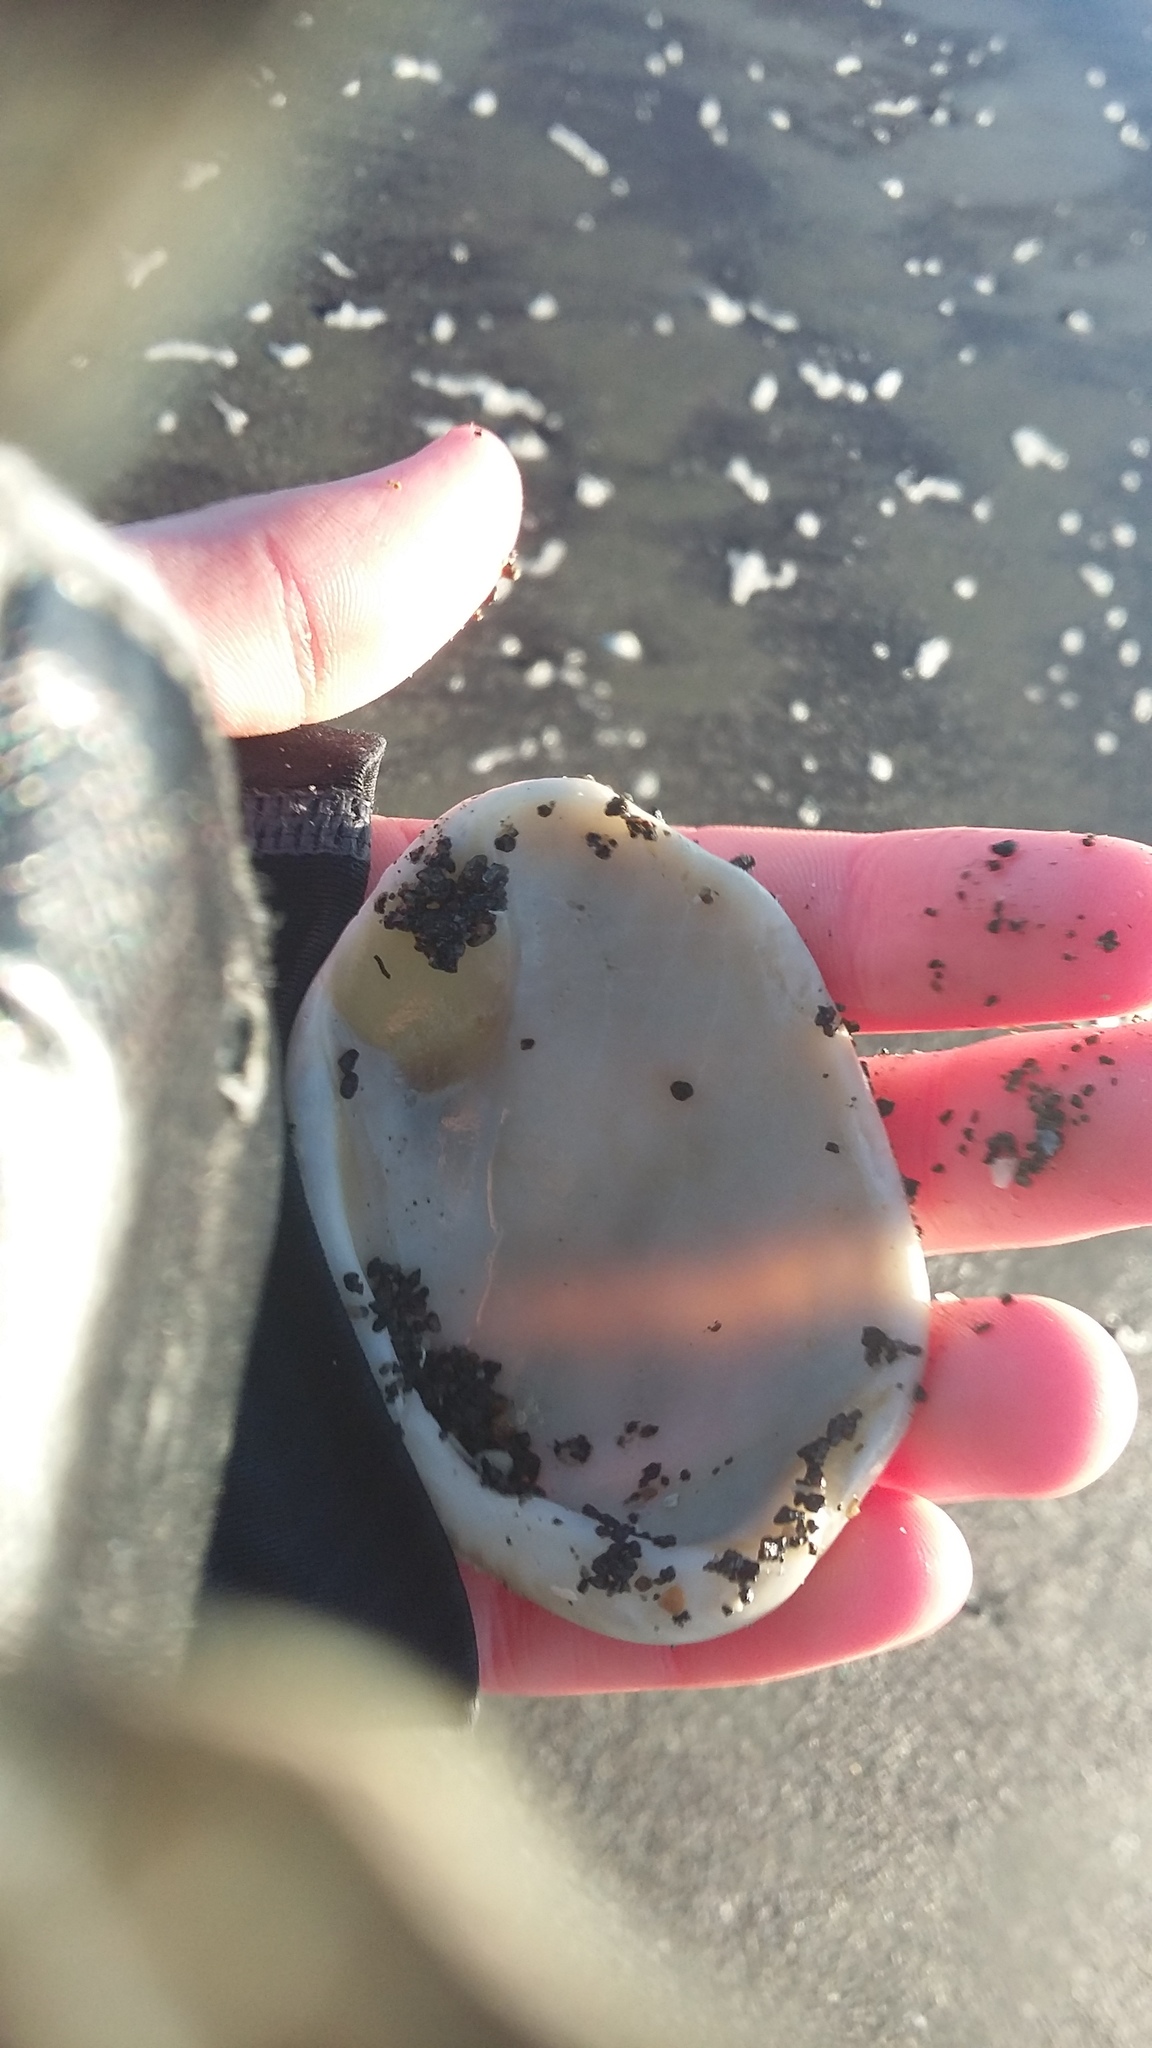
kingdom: Animalia
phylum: Mollusca
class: Bivalvia
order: Arcida
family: Glycymerididae
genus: Tucetona
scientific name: Tucetona laticostata
